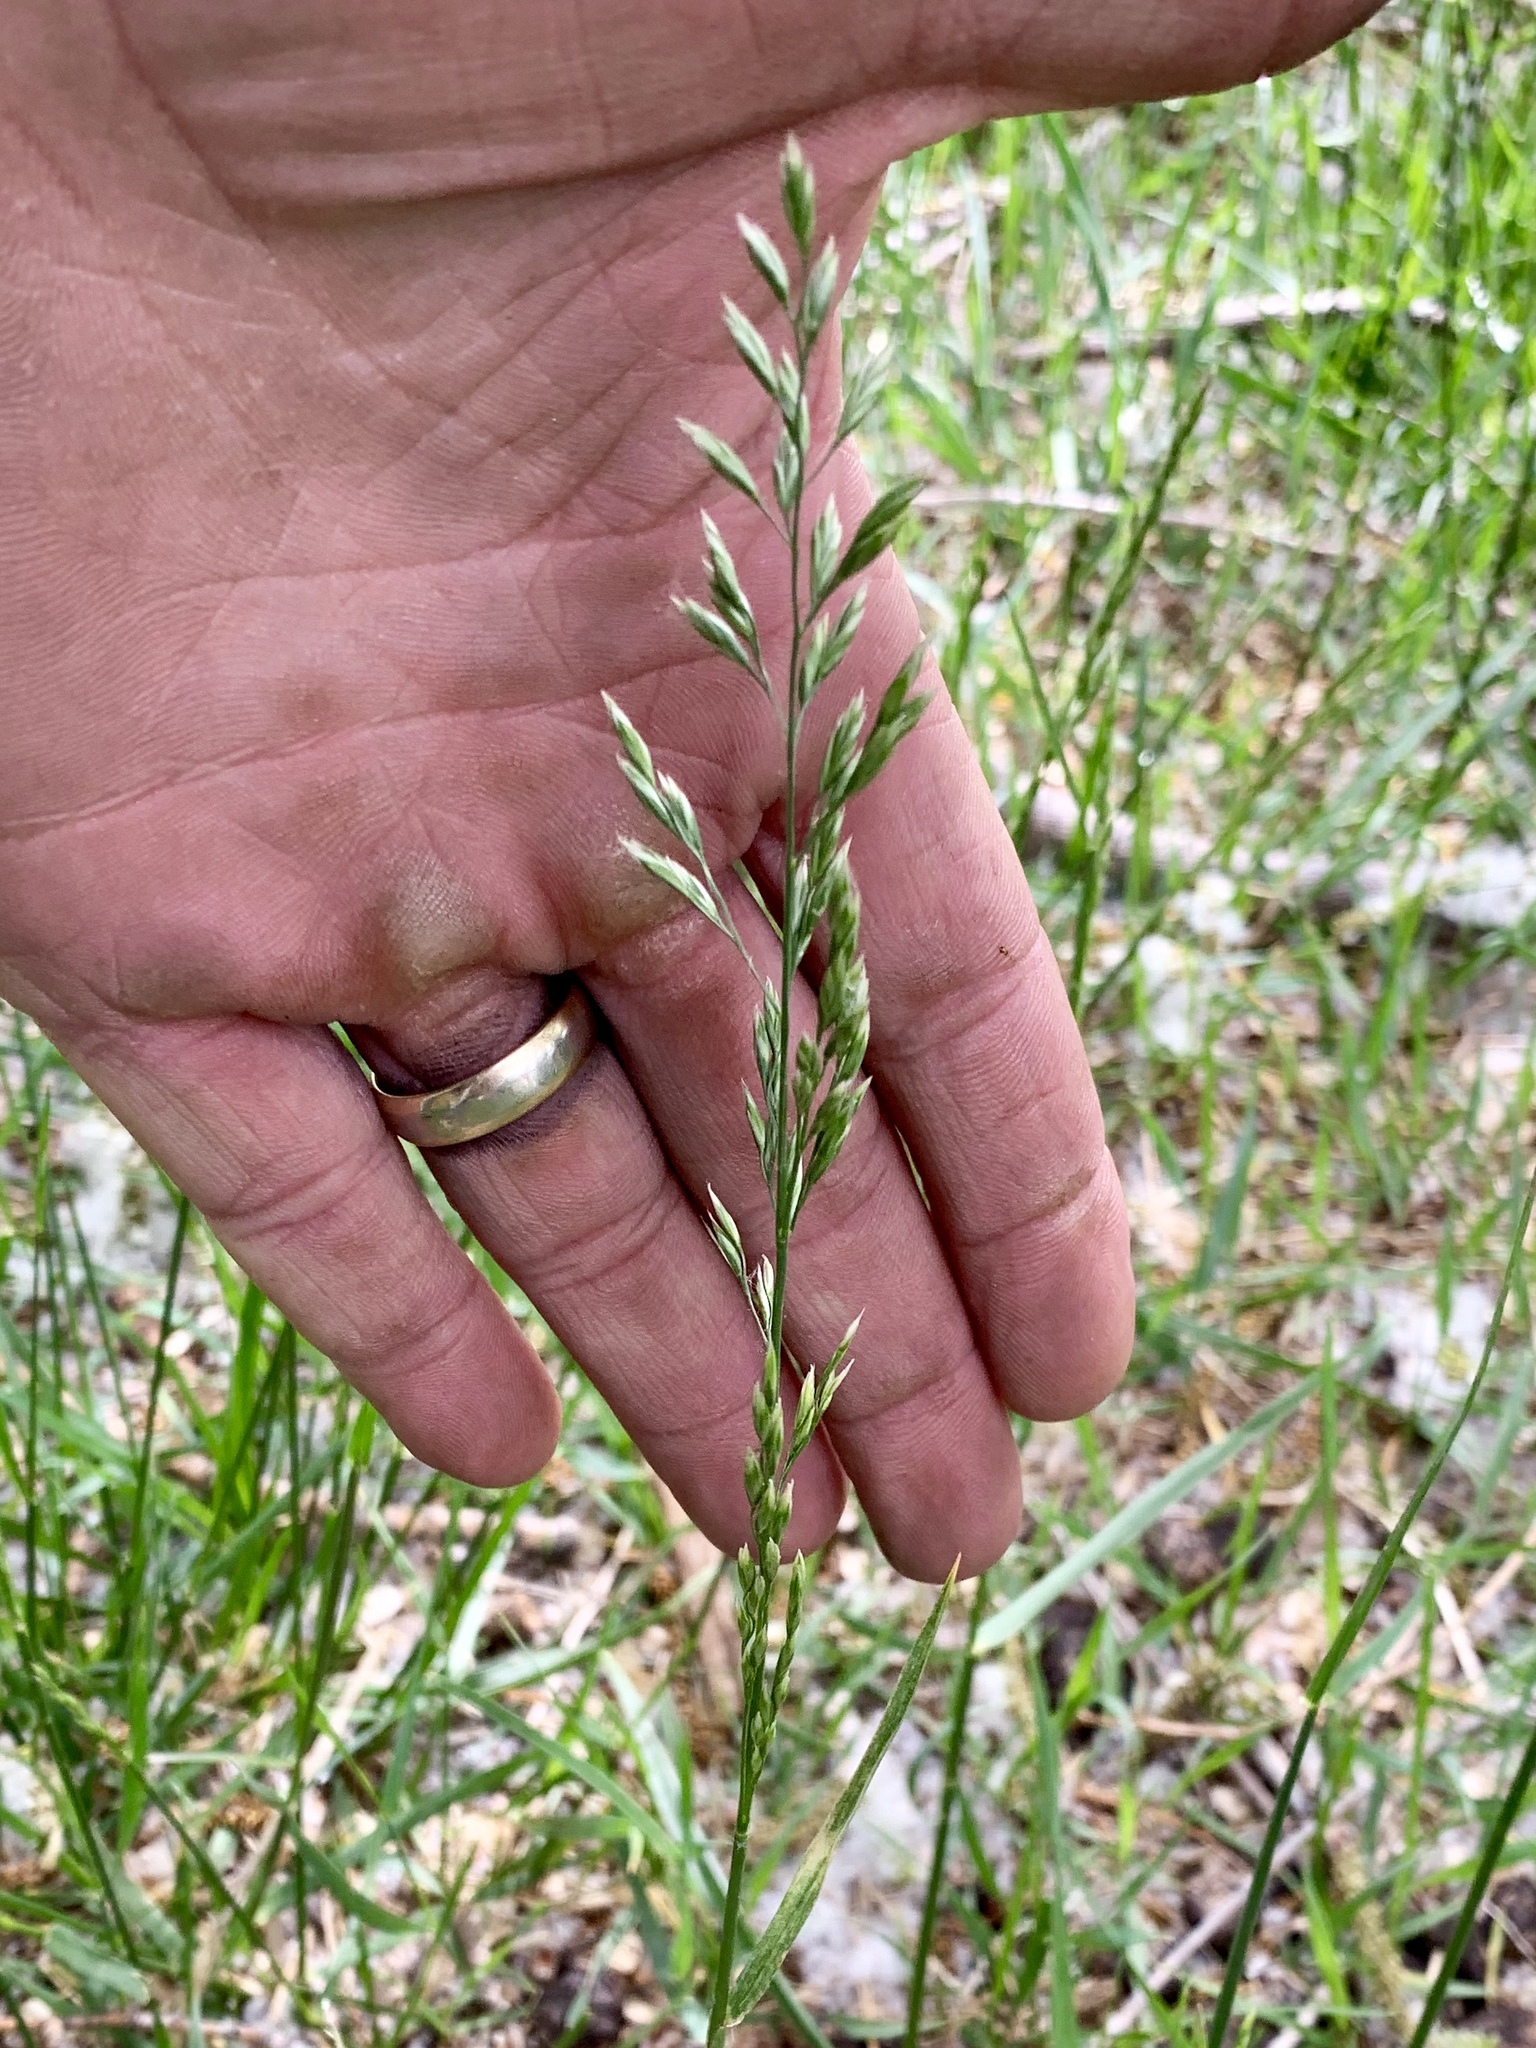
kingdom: Plantae
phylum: Tracheophyta
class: Liliopsida
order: Poales
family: Poaceae
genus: Lolium
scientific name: Lolium arundinaceum
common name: Reed fescue
